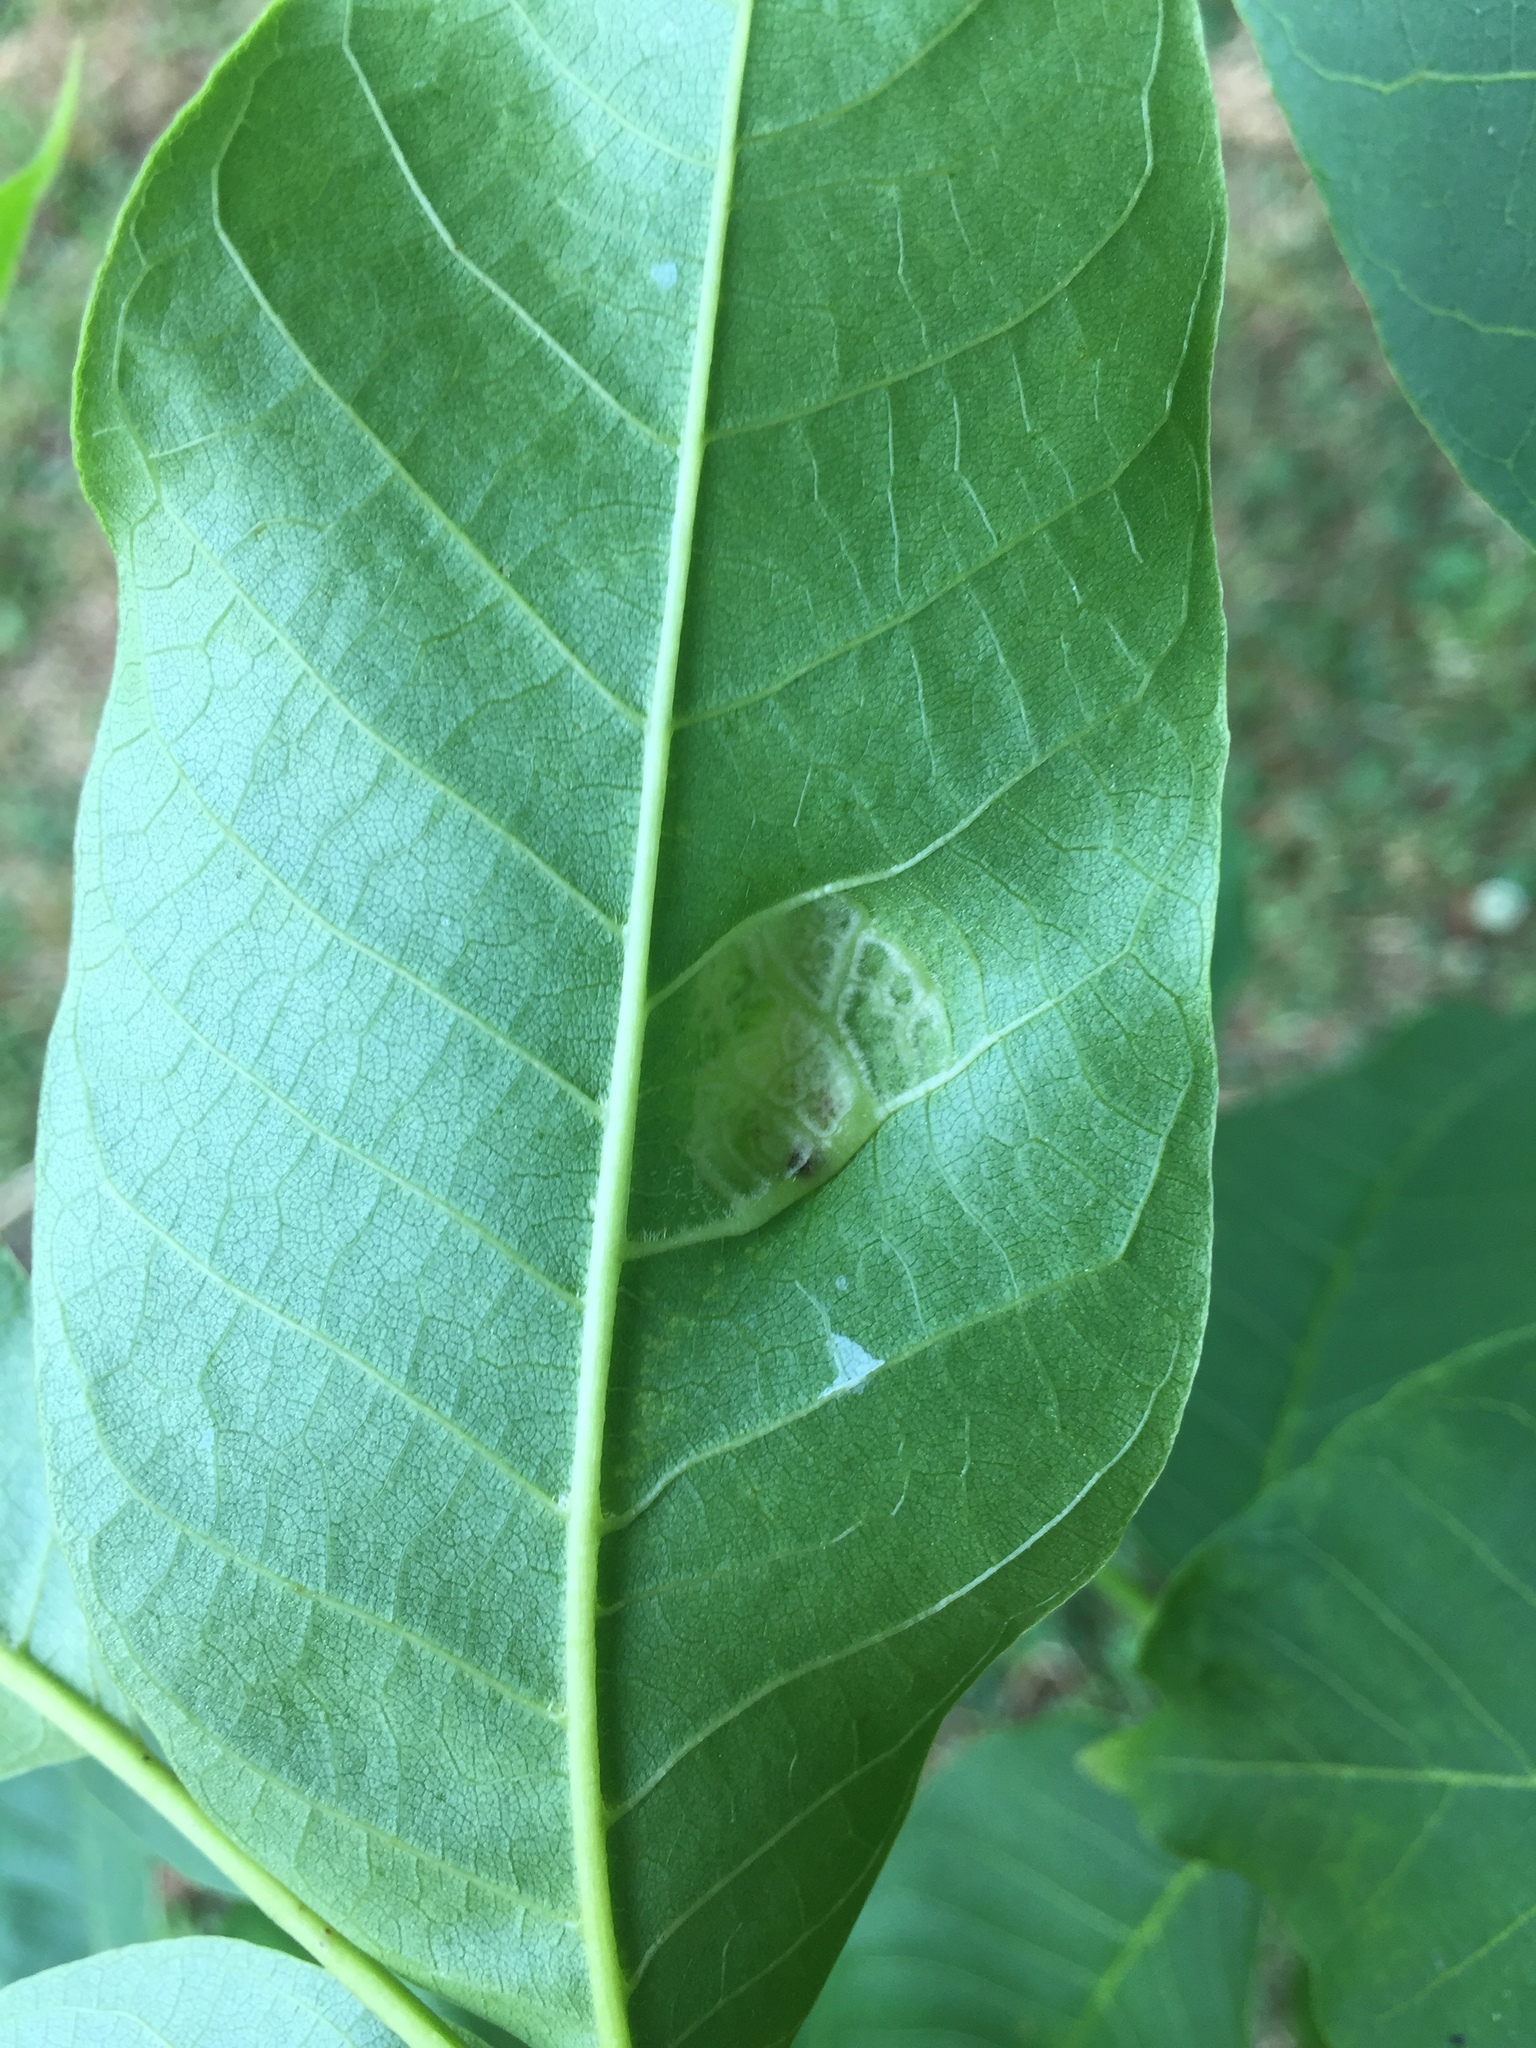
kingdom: Animalia
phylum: Arthropoda
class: Arachnida
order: Trombidiformes
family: Eriophyidae
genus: Aceria
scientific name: Aceria erinea
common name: Persian walnut erineum mite
